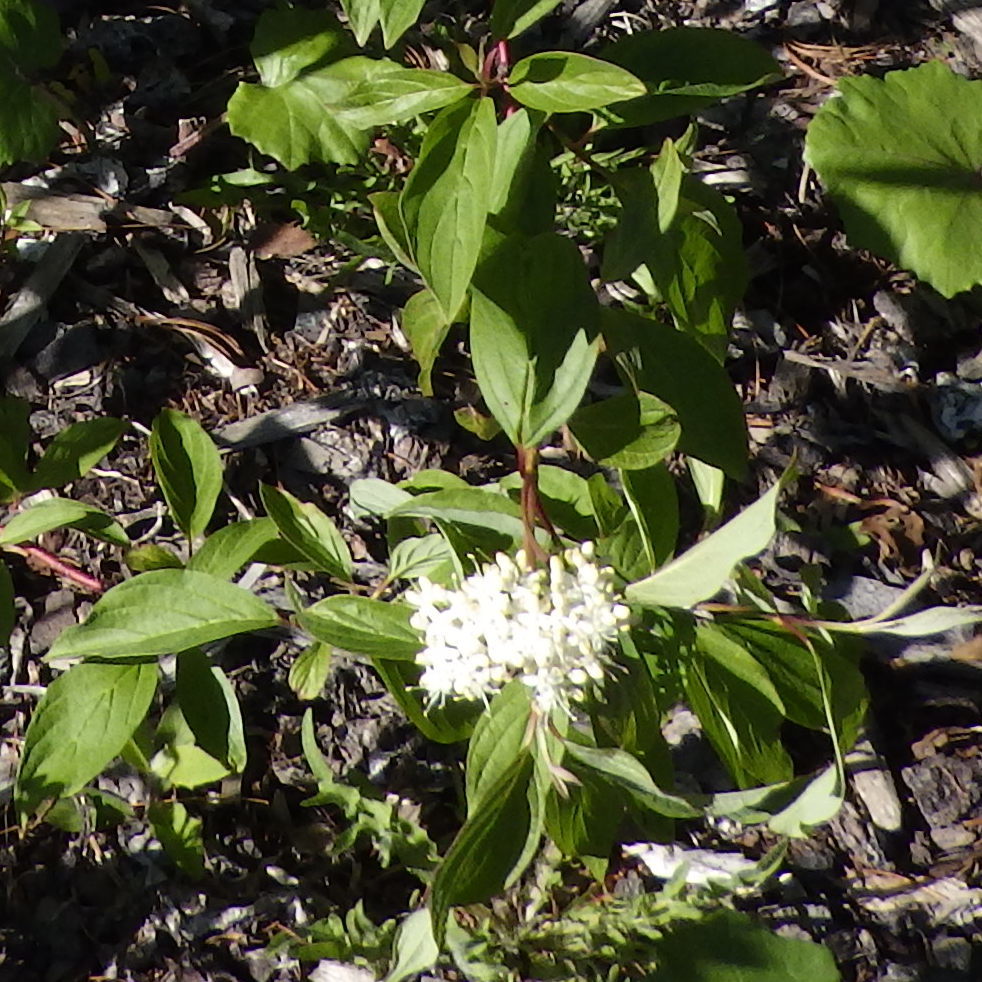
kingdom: Plantae
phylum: Tracheophyta
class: Magnoliopsida
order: Cornales
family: Cornaceae
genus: Cornus
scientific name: Cornus sericea
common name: Red-osier dogwood
